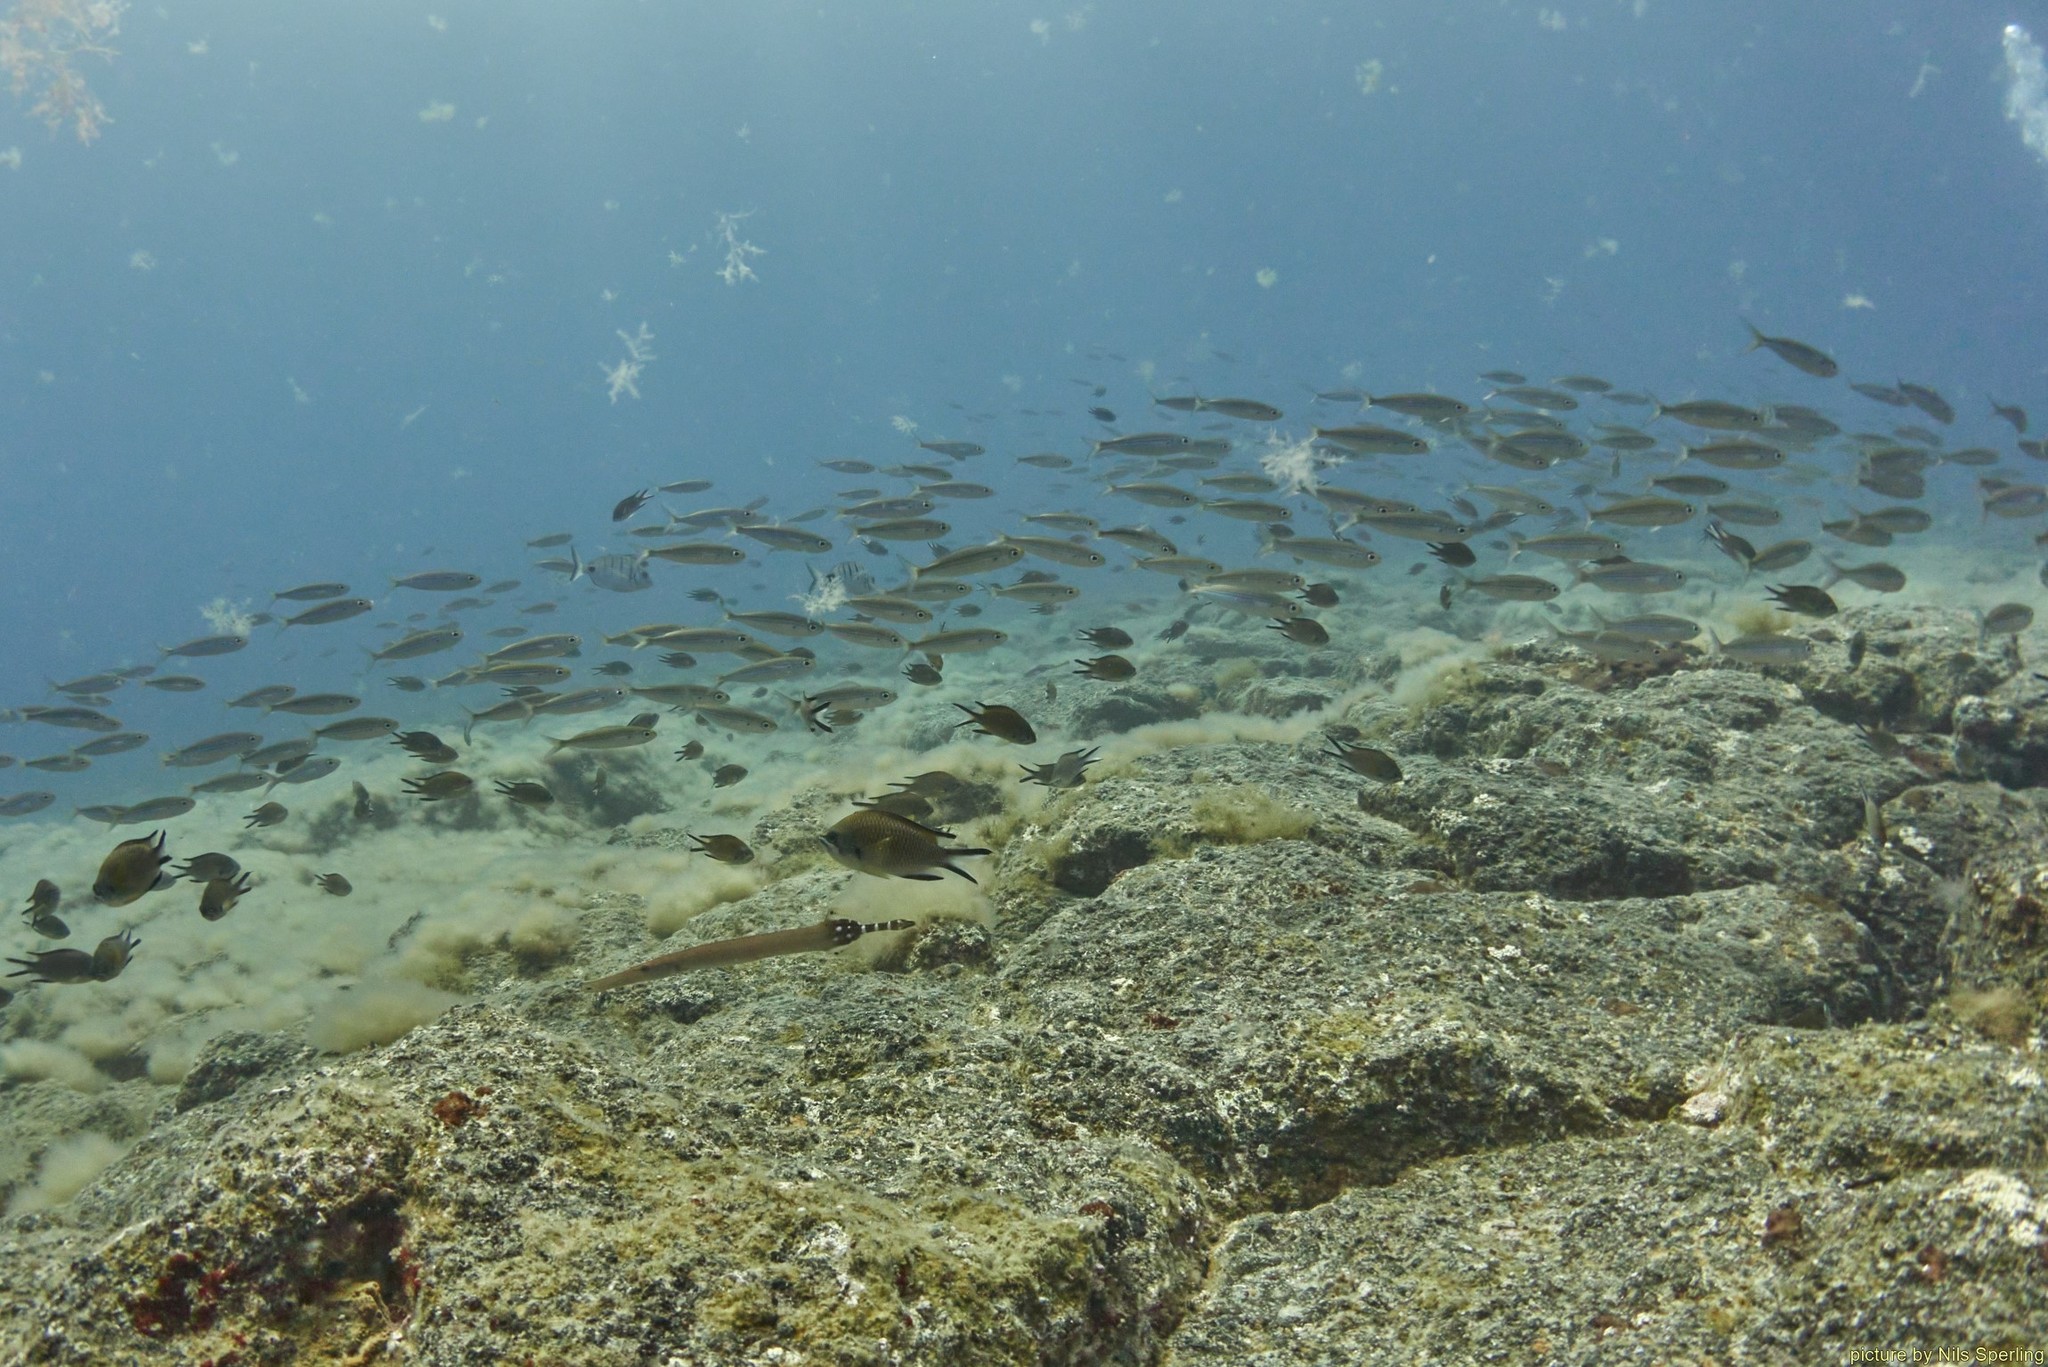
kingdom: Animalia
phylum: Chordata
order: Perciformes
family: Pomacentridae
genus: Chromis
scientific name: Chromis limbata
